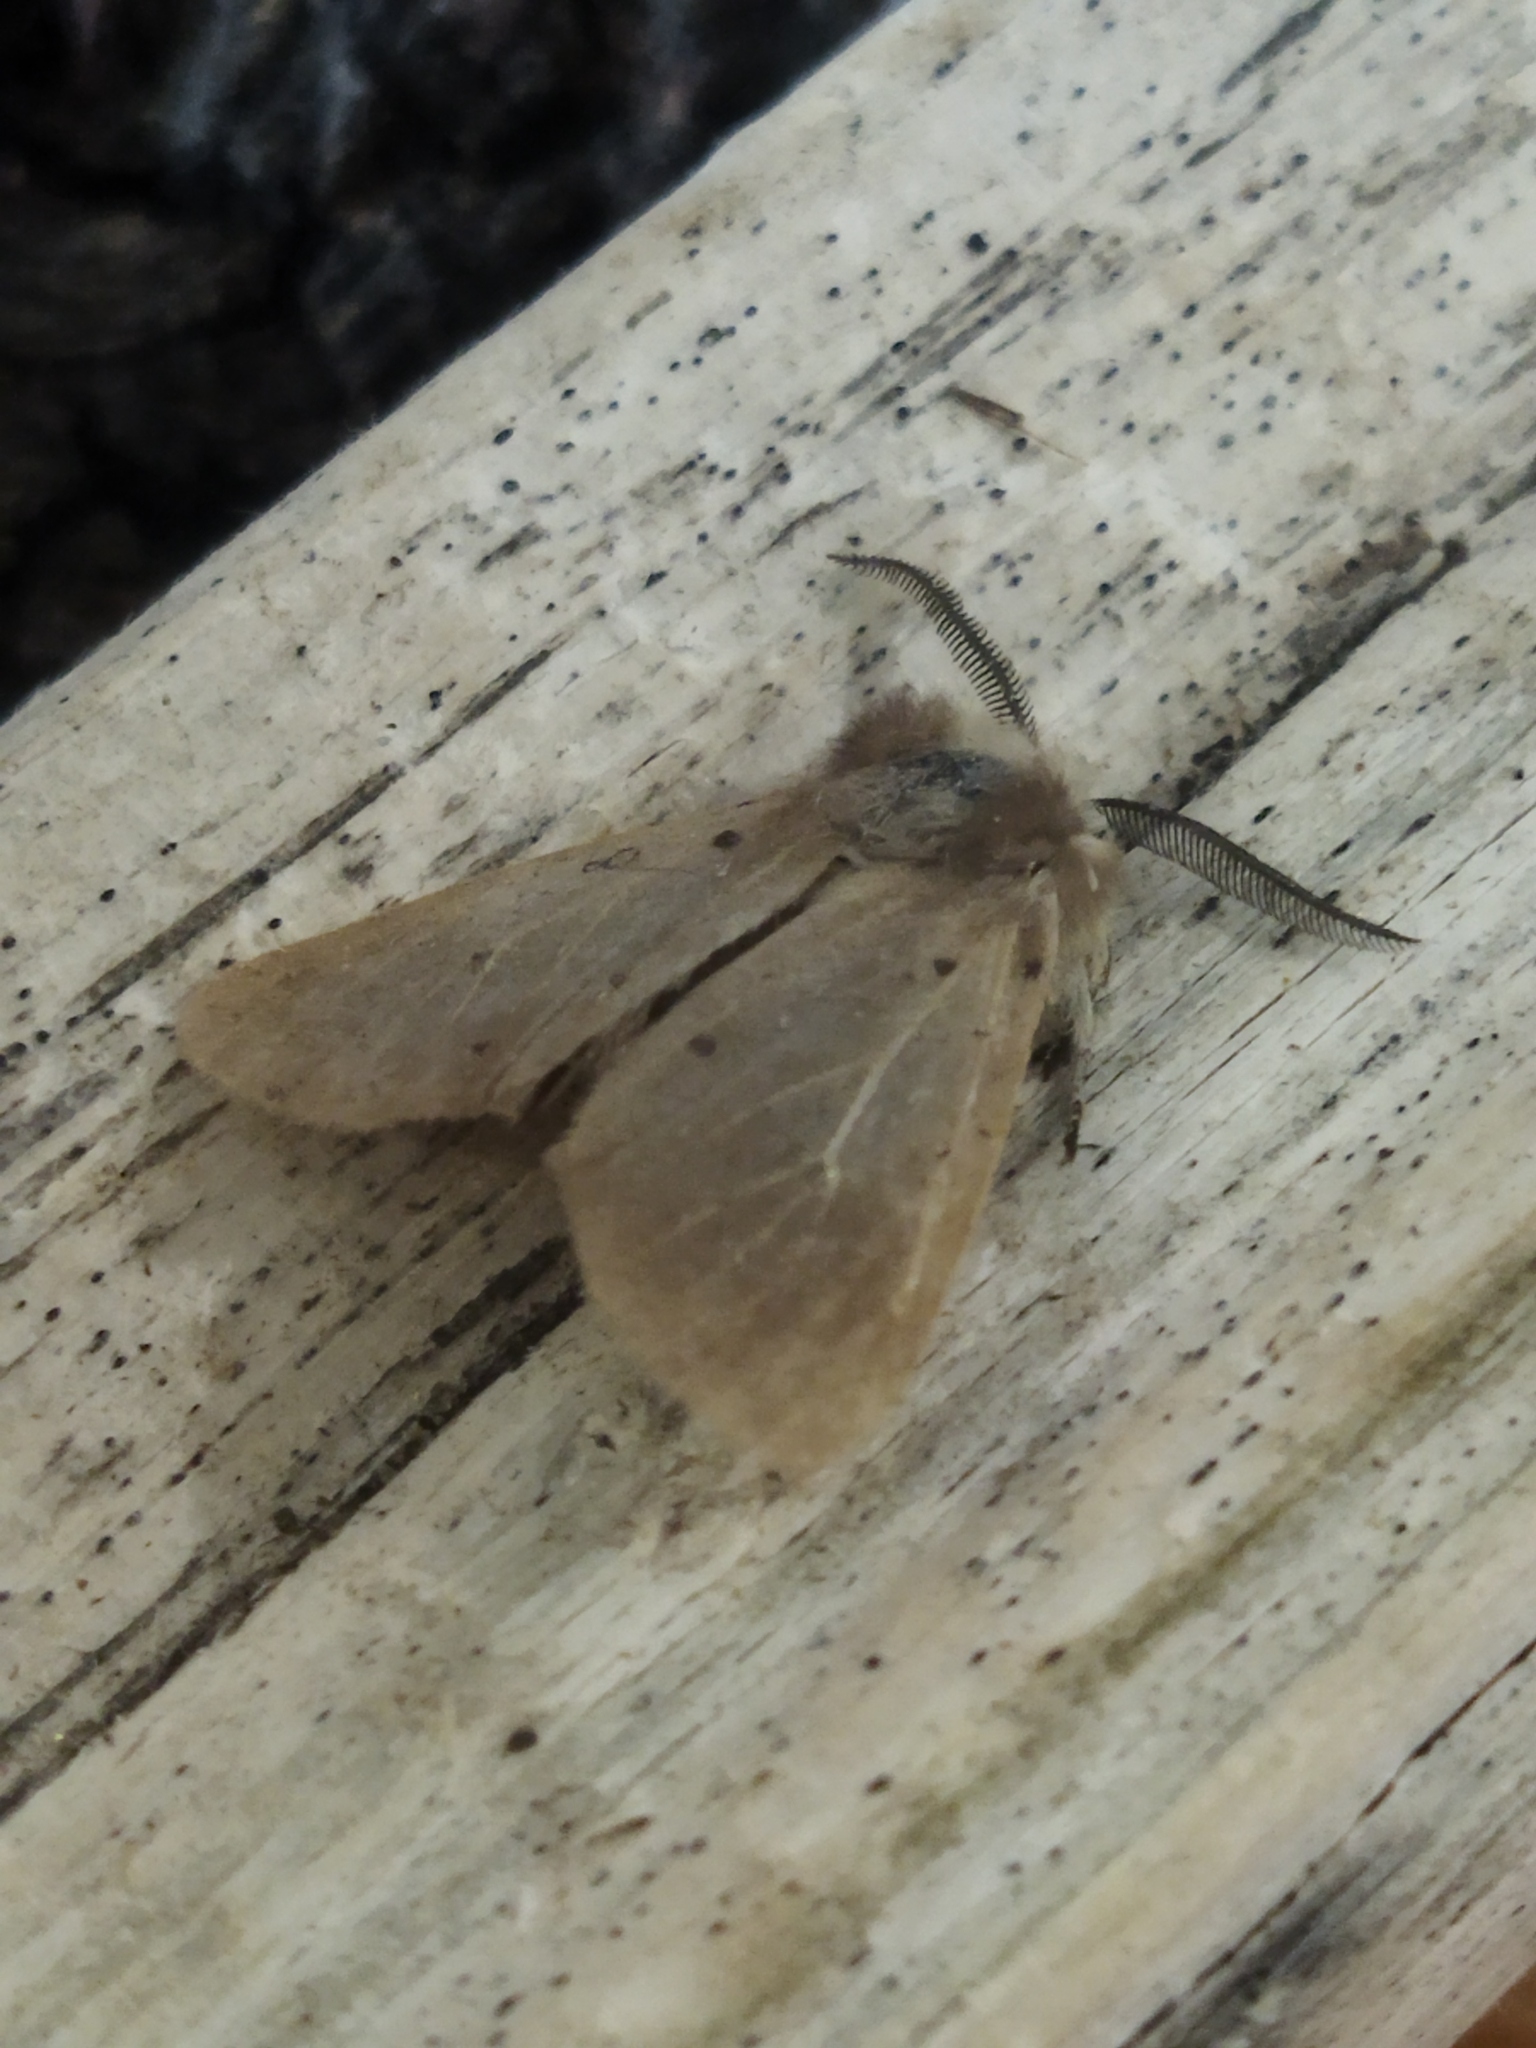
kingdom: Animalia
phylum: Arthropoda
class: Insecta
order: Lepidoptera
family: Erebidae
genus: Diaphora
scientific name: Diaphora mendica
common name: Muslin moth
